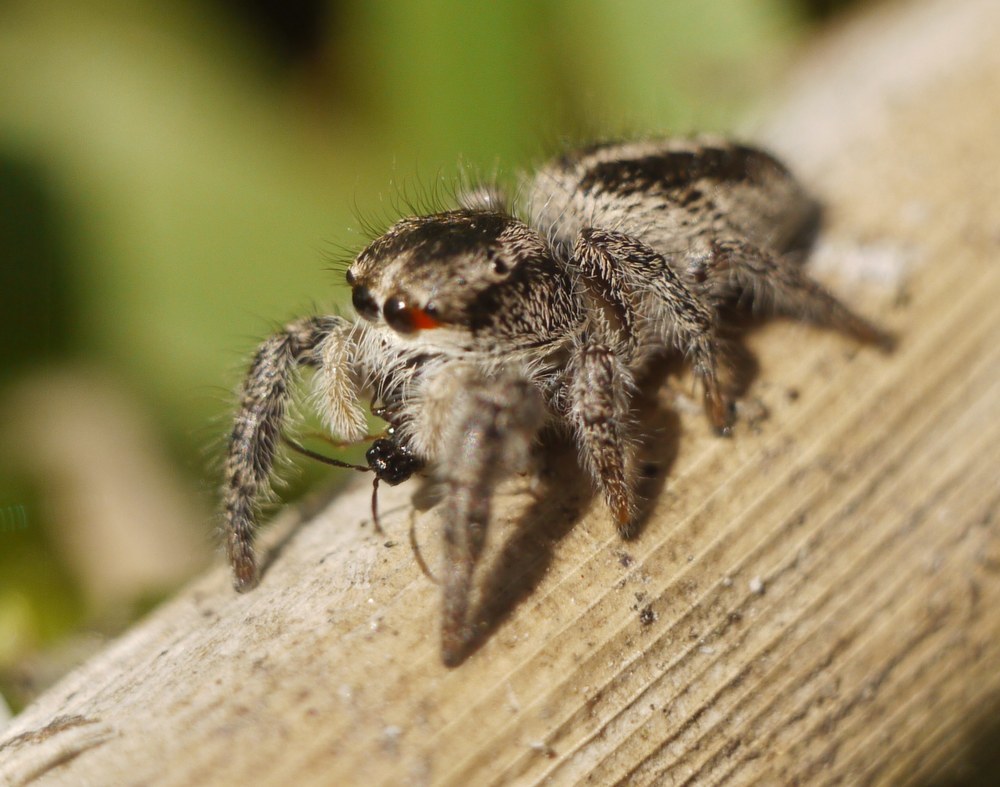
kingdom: Animalia
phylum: Arthropoda
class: Arachnida
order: Araneae
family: Salticidae
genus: Pellenes
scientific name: Pellenes seriatus
